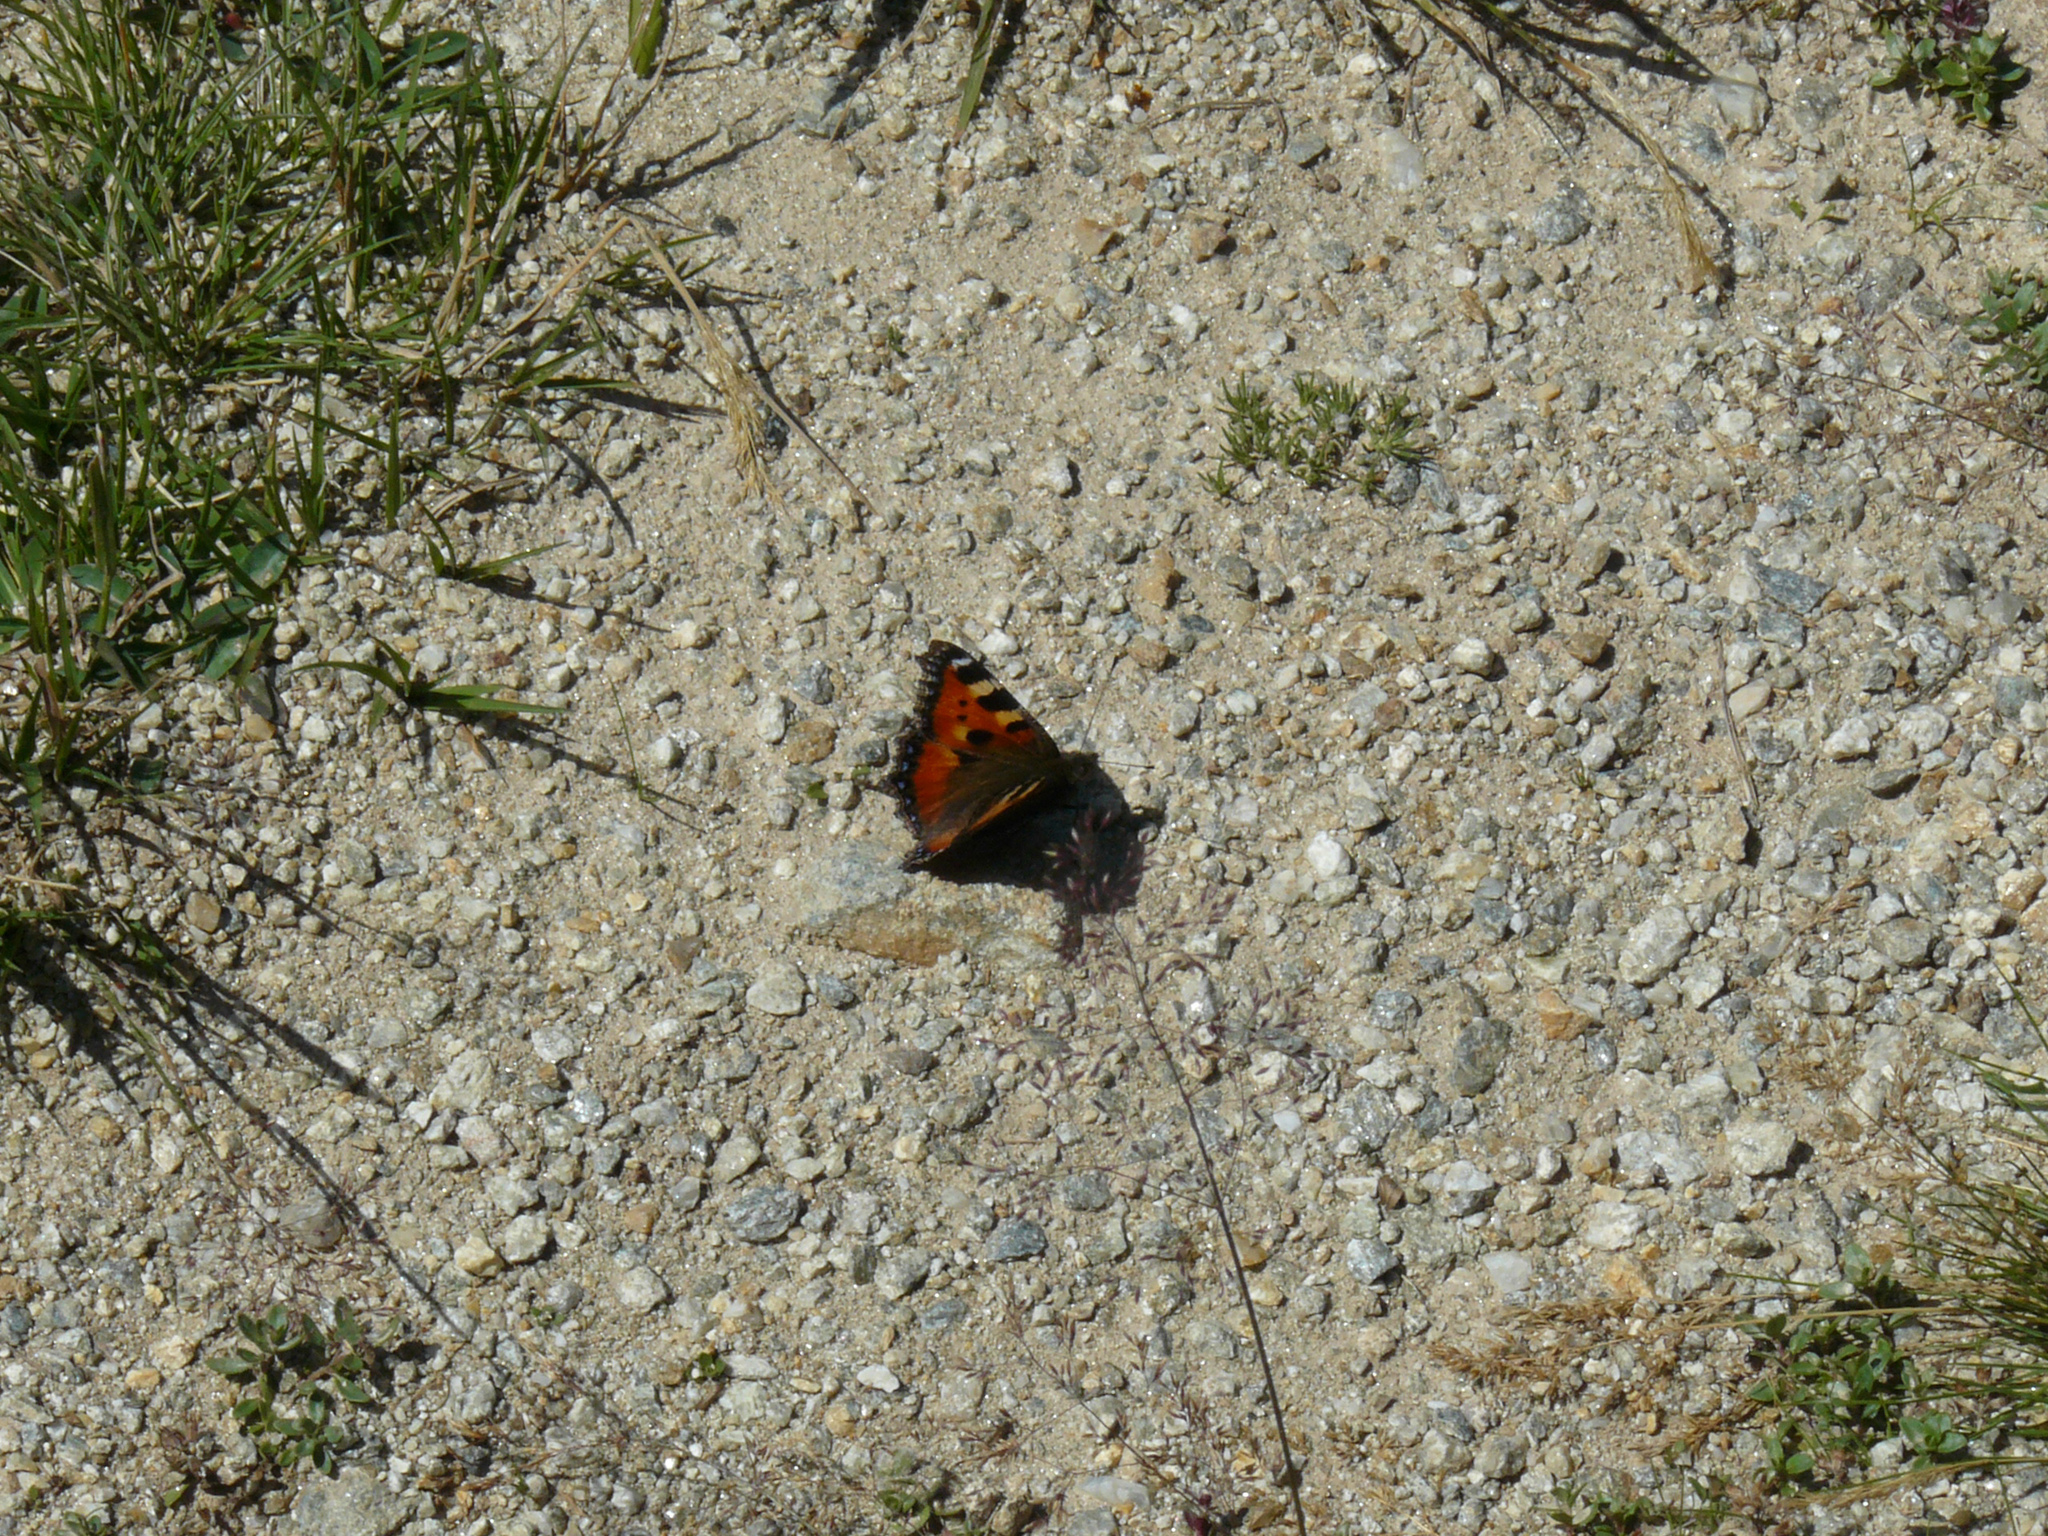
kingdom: Animalia
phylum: Arthropoda
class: Insecta
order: Lepidoptera
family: Nymphalidae
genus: Aglais
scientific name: Aglais urticae
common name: Small tortoiseshell
